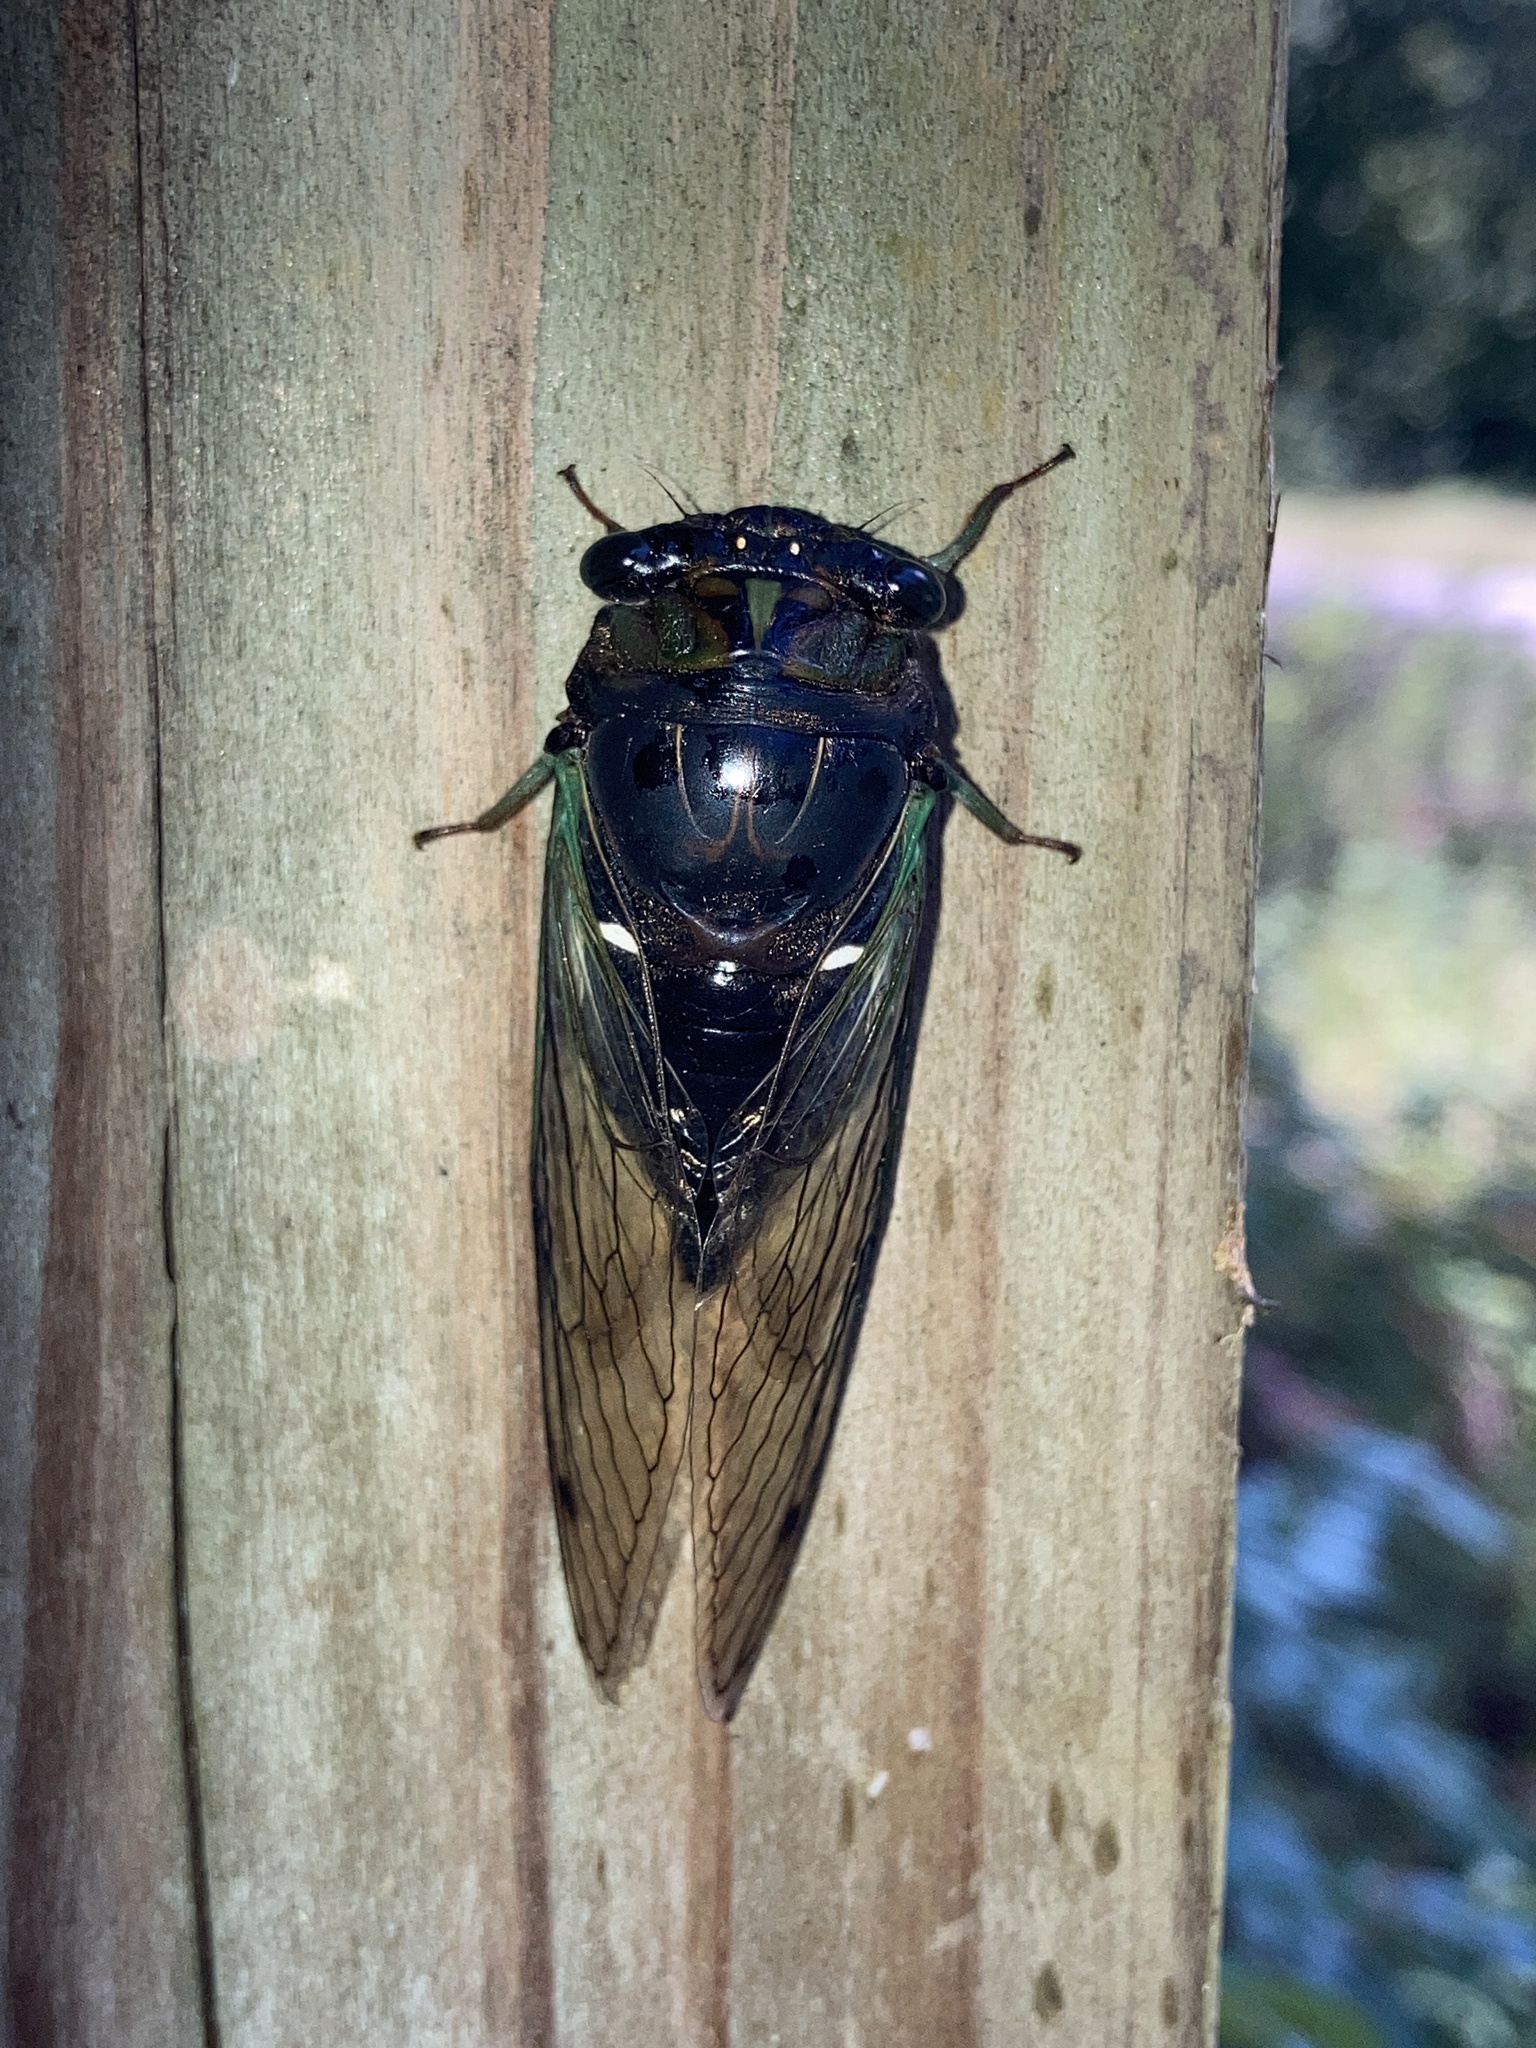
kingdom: Animalia
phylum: Arthropoda
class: Insecta
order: Hemiptera
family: Cicadidae
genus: Neotibicen
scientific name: Neotibicen tibicen
